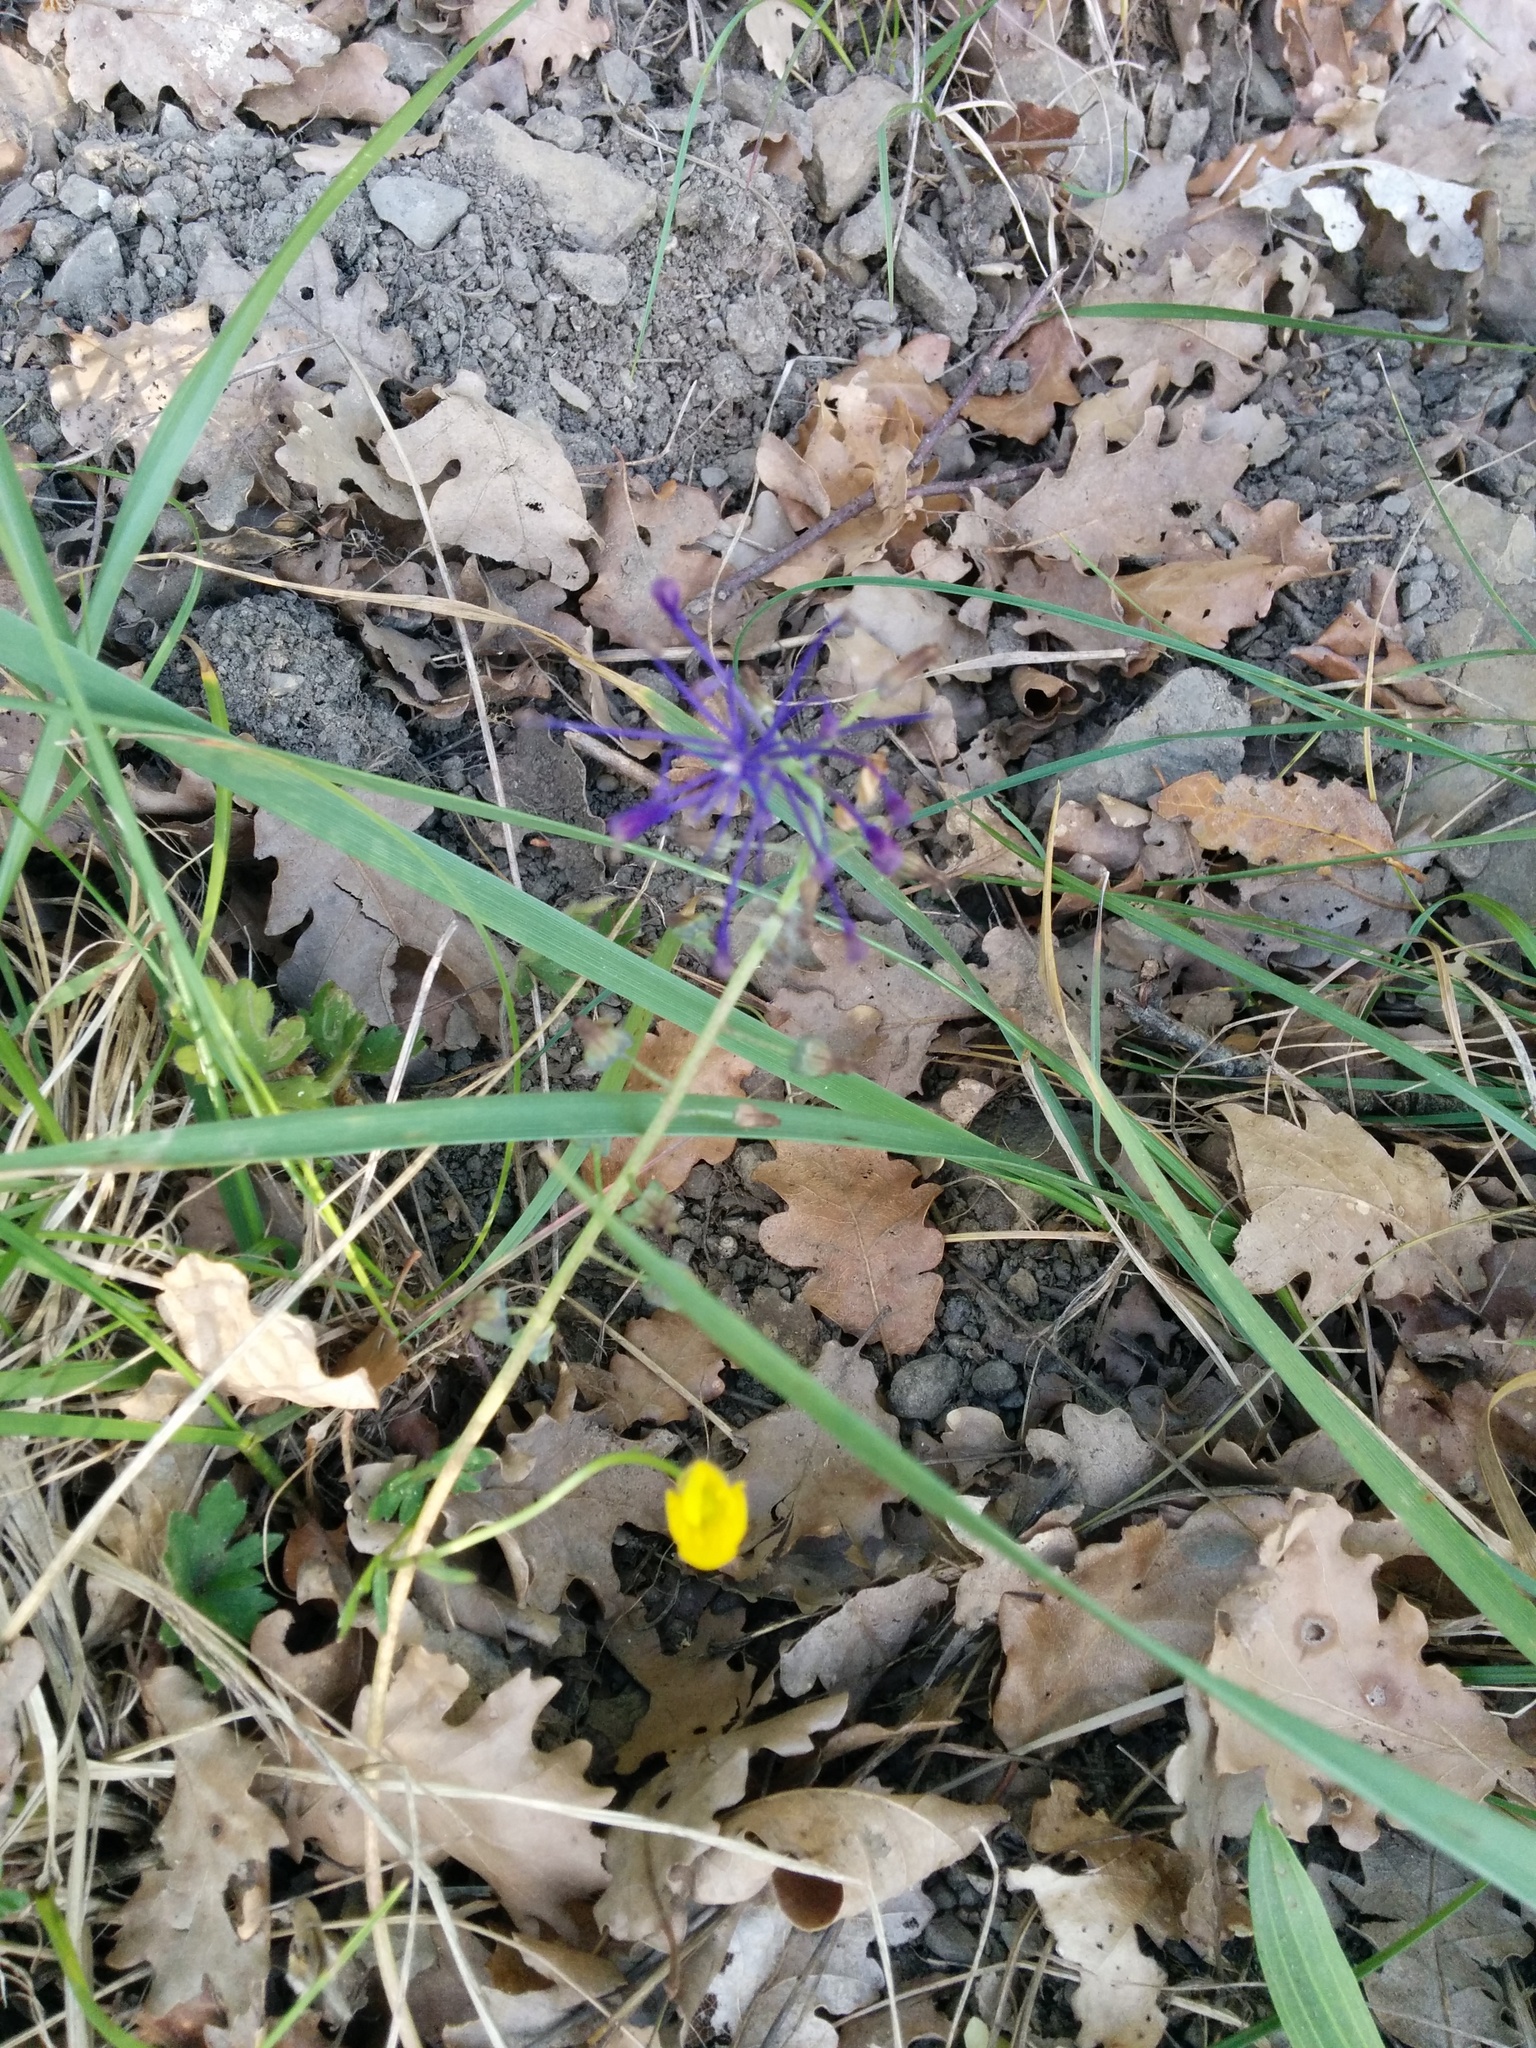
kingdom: Plantae
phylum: Tracheophyta
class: Liliopsida
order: Asparagales
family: Asparagaceae
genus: Muscari
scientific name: Muscari comosum
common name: Tassel hyacinth
